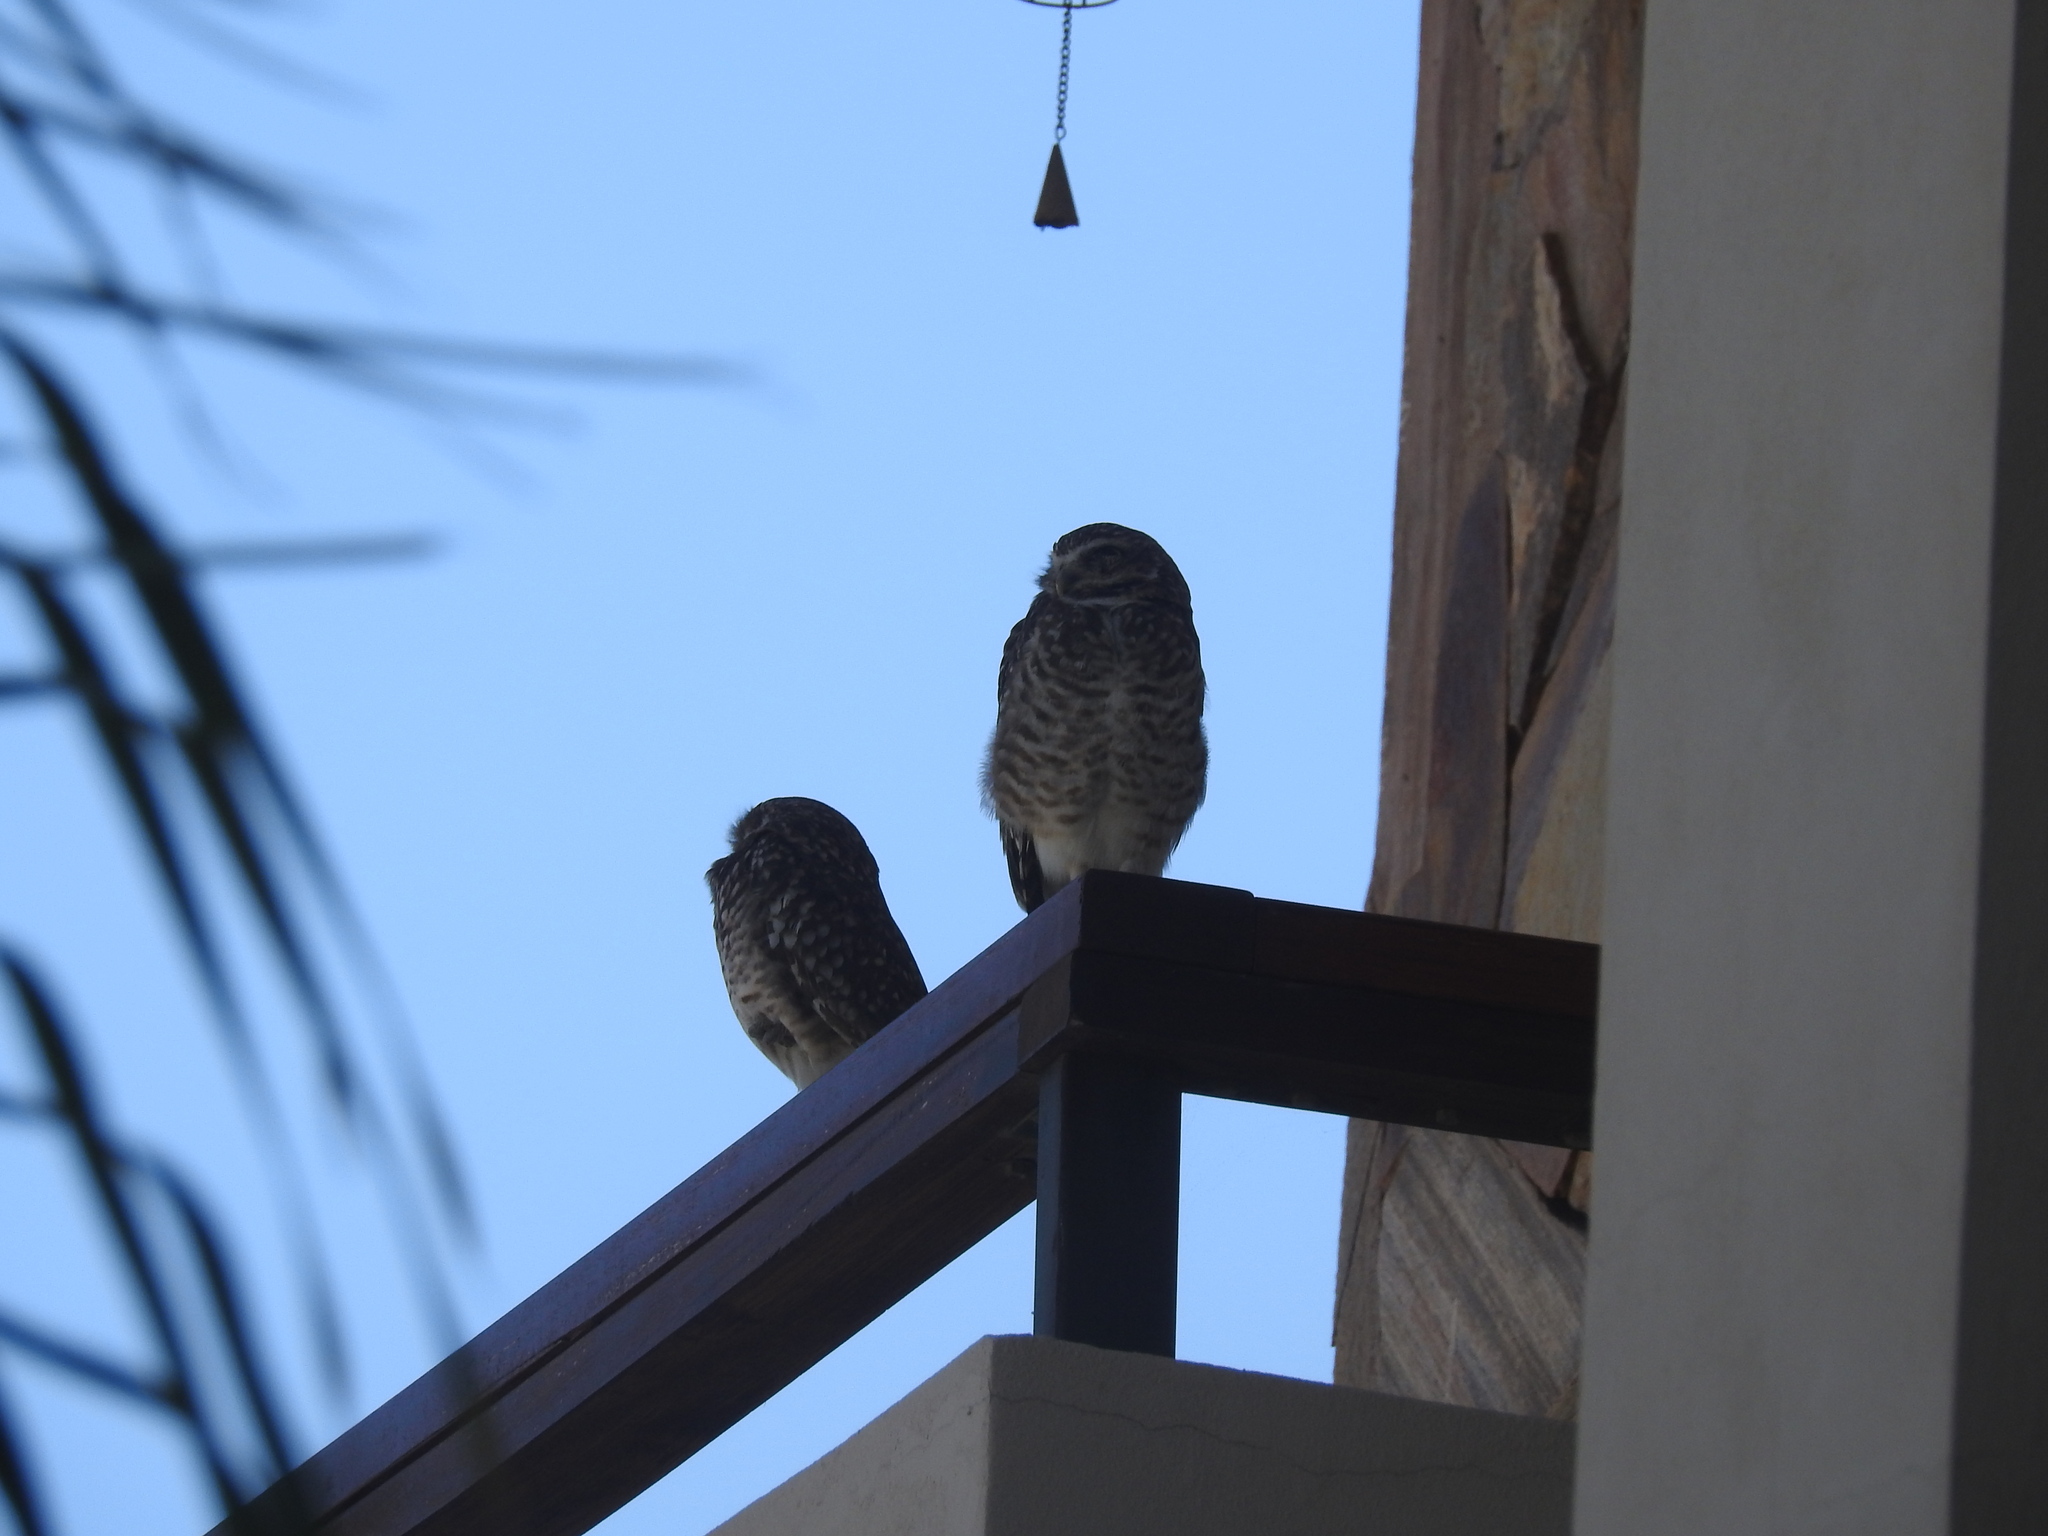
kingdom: Animalia
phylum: Chordata
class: Aves
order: Strigiformes
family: Strigidae
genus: Athene
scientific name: Athene cunicularia
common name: Burrowing owl
